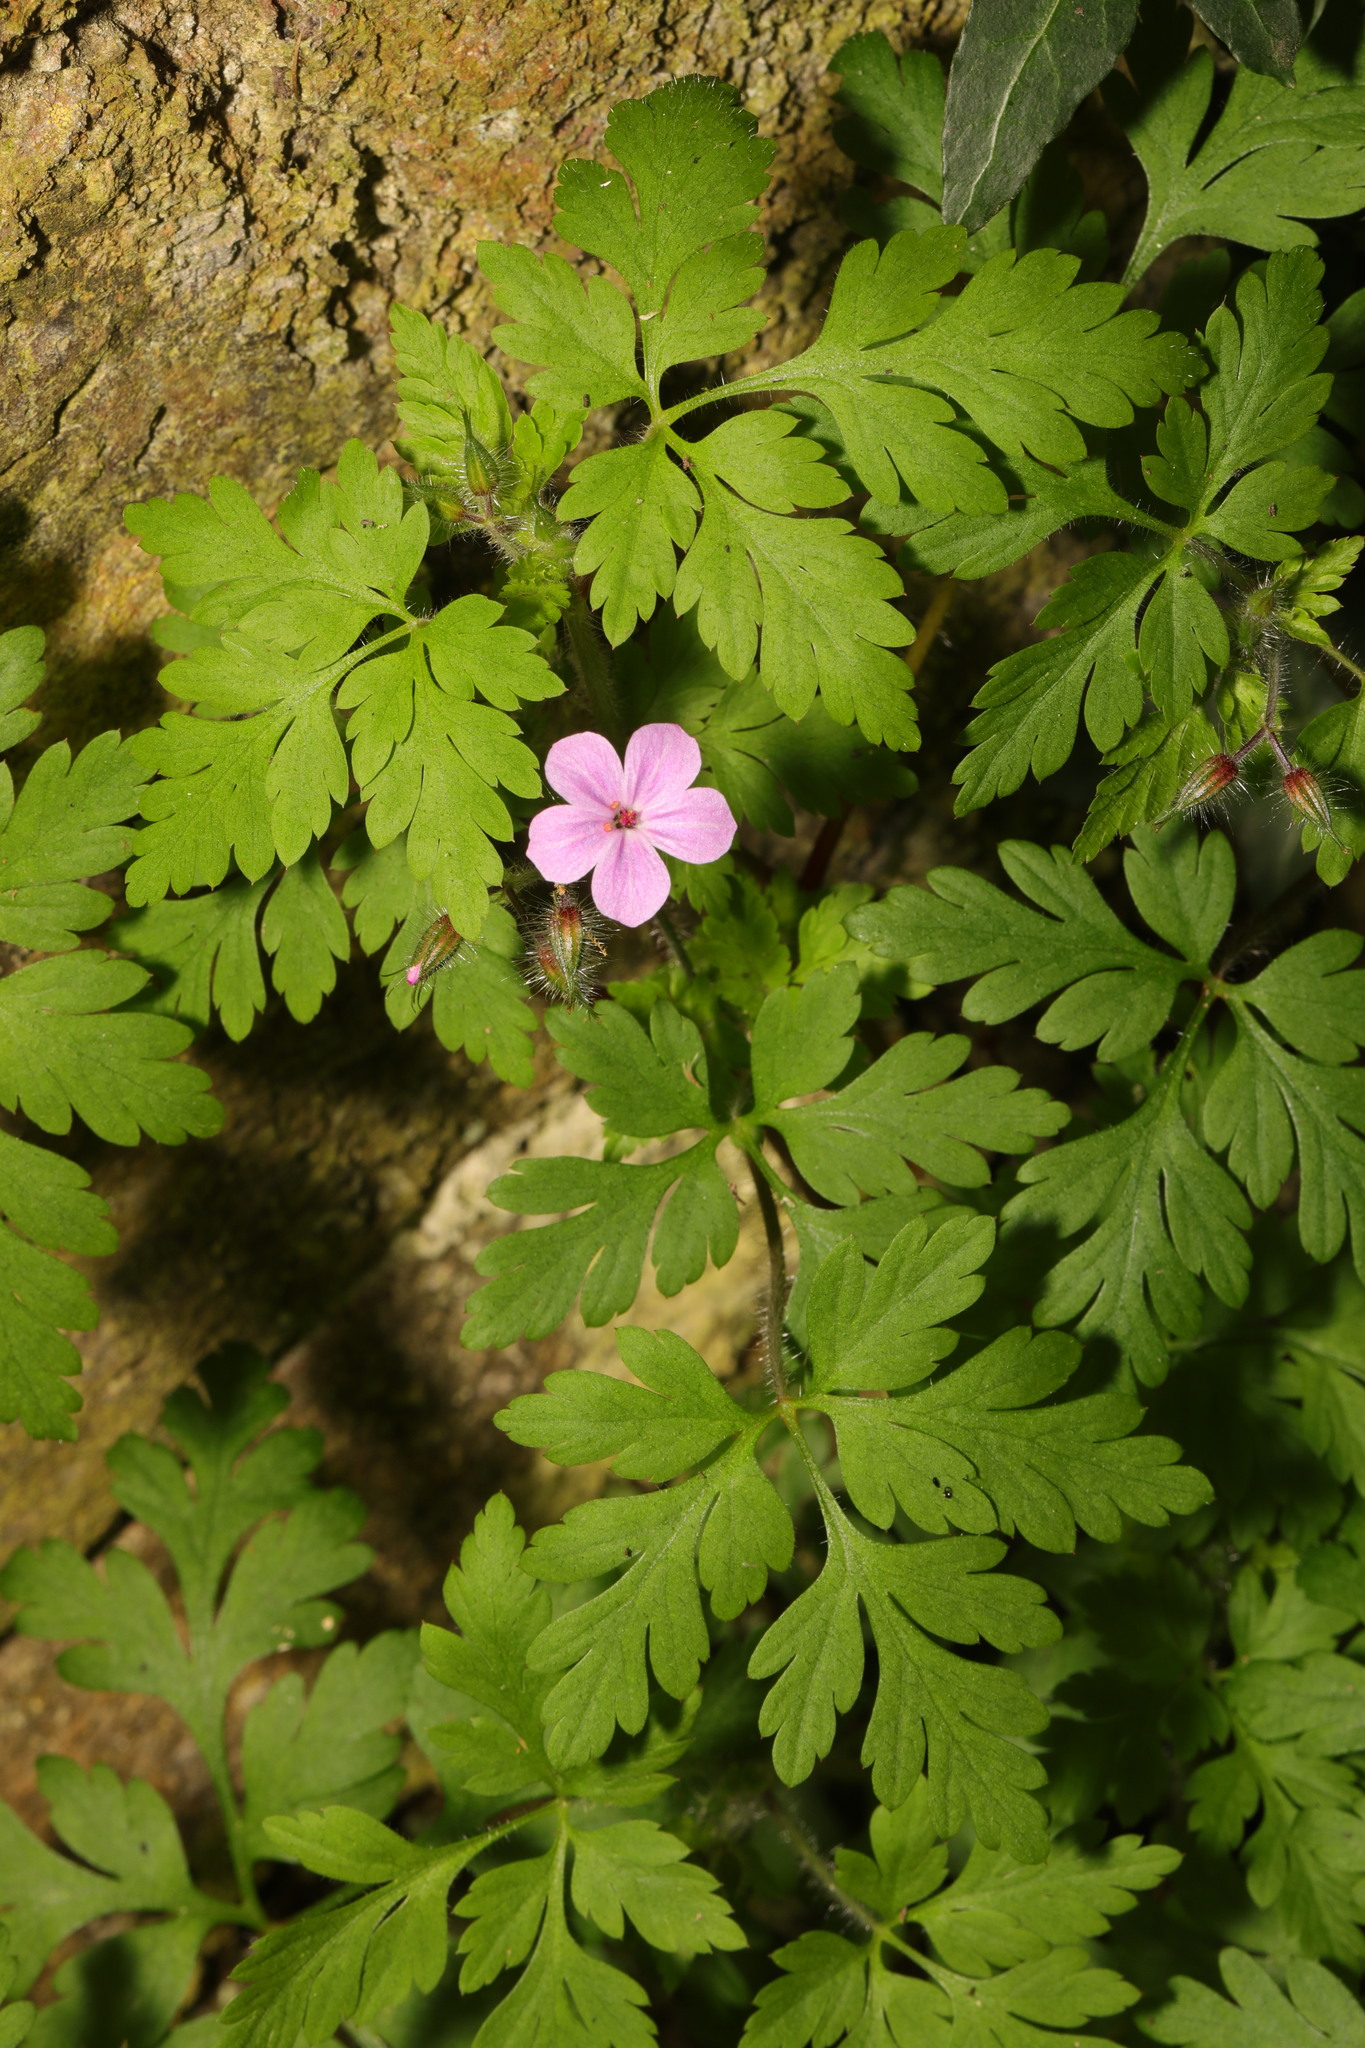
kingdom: Plantae
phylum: Tracheophyta
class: Magnoliopsida
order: Geraniales
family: Geraniaceae
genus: Geranium
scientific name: Geranium robertianum
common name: Herb-robert
